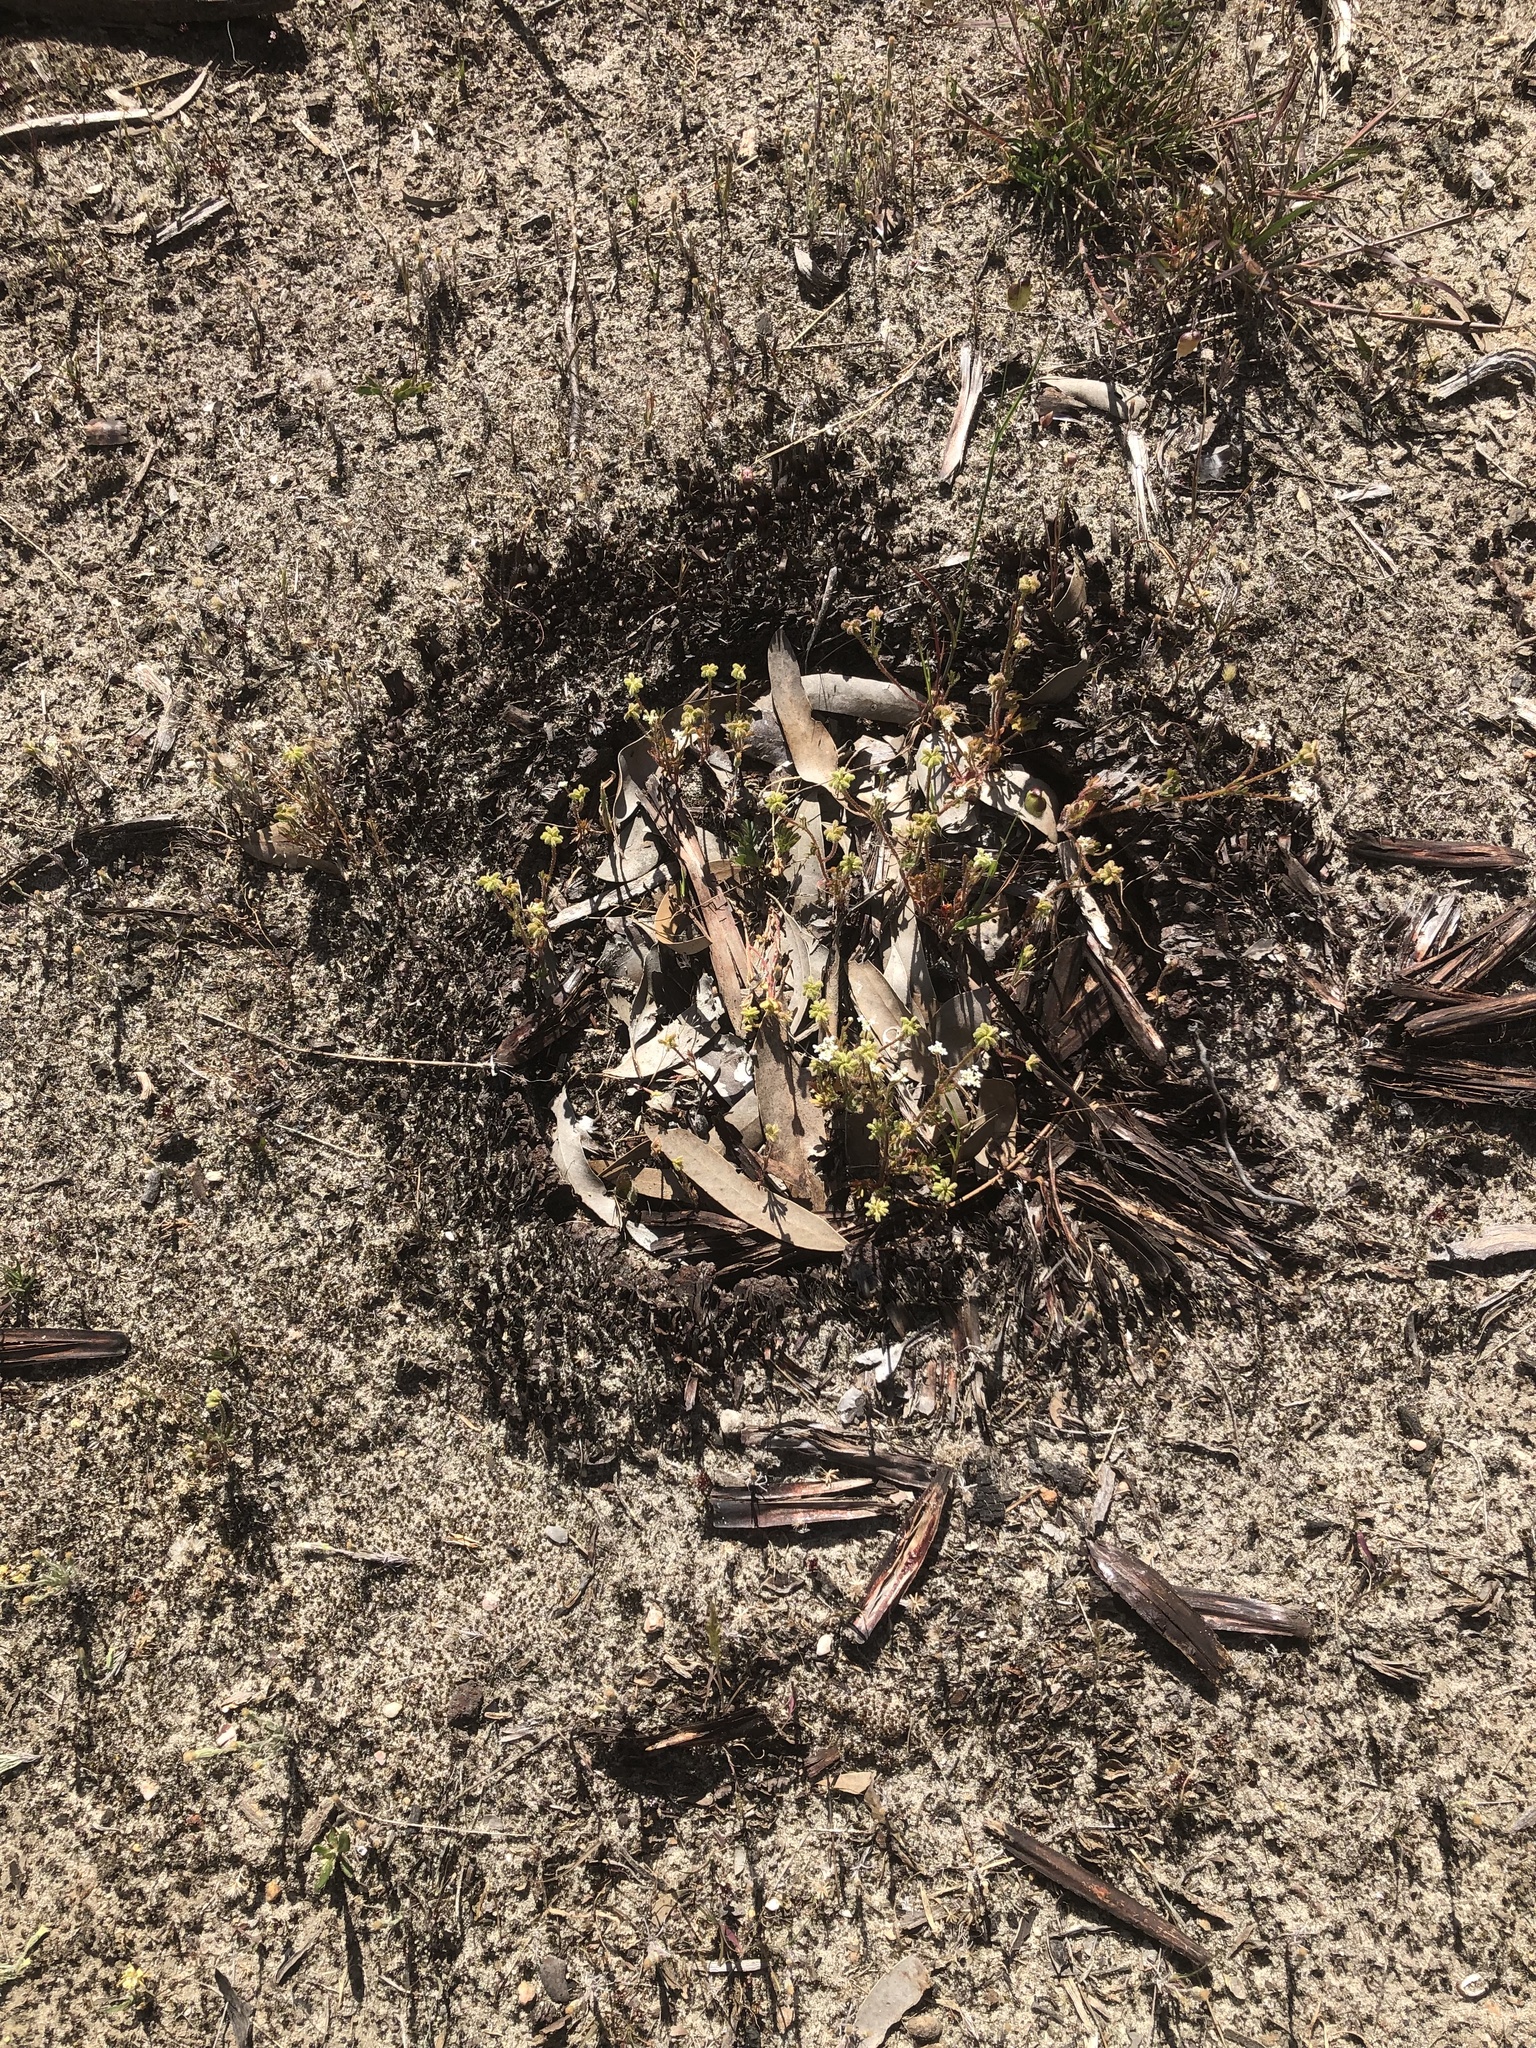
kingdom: Plantae
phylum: Tracheophyta
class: Magnoliopsida
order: Apiales
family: Araliaceae
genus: Trachymene
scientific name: Trachymene pilosa
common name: Dwarf trachymene
